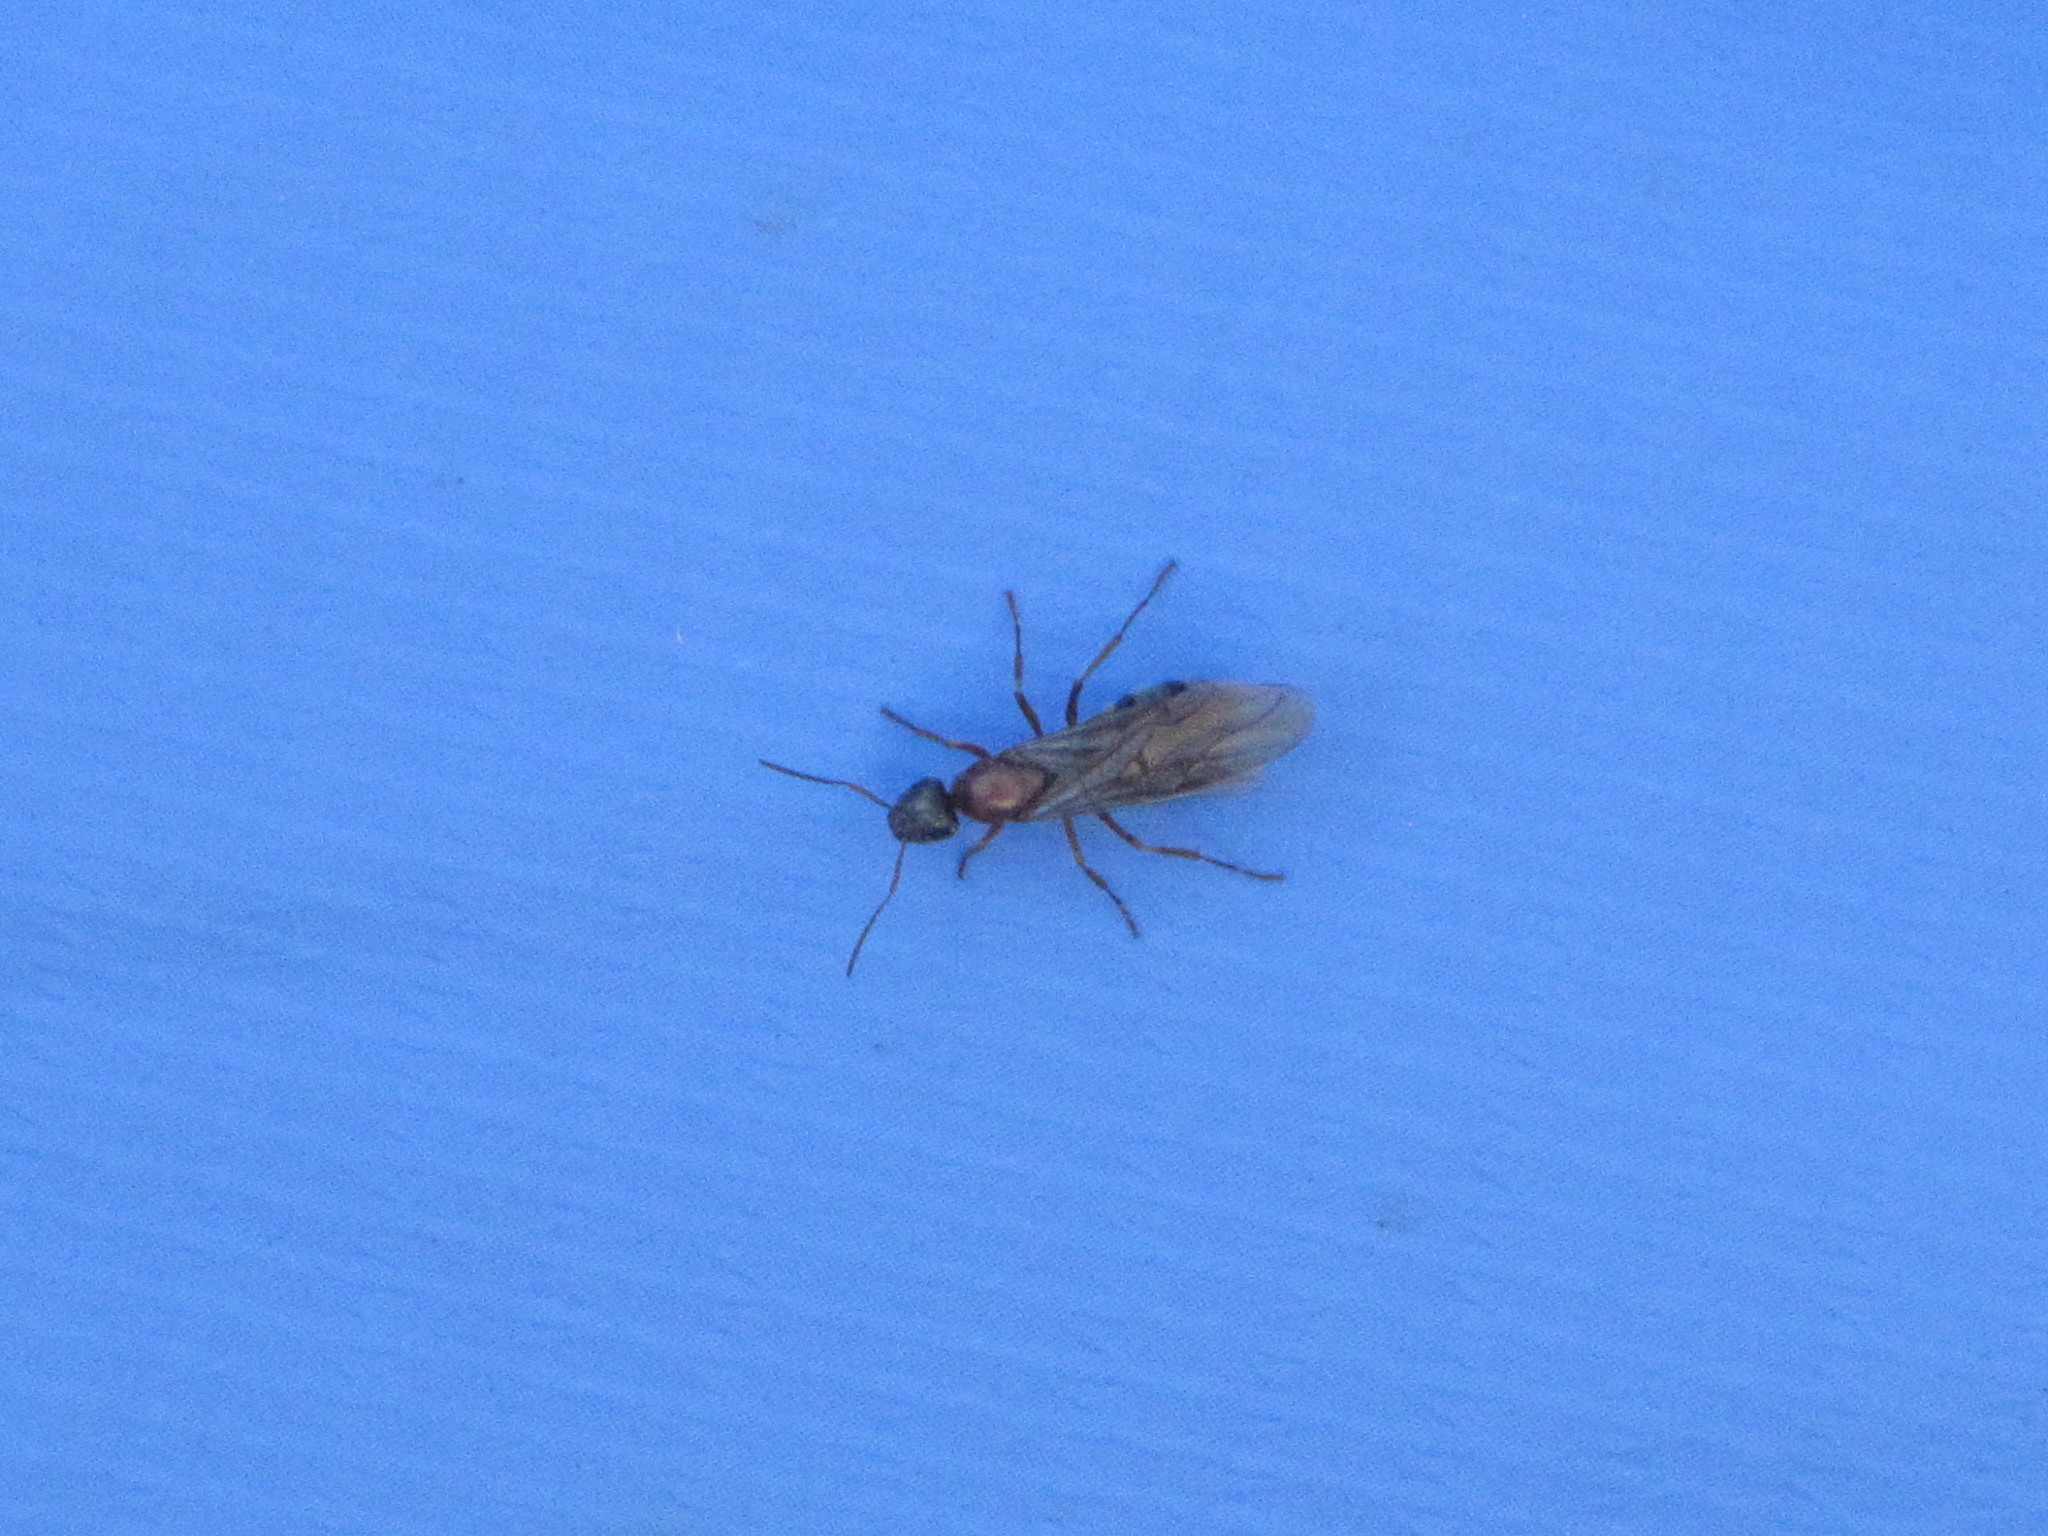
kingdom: Animalia
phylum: Arthropoda
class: Insecta
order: Hymenoptera
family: Formicidae
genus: Formica
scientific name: Formica pacifica
